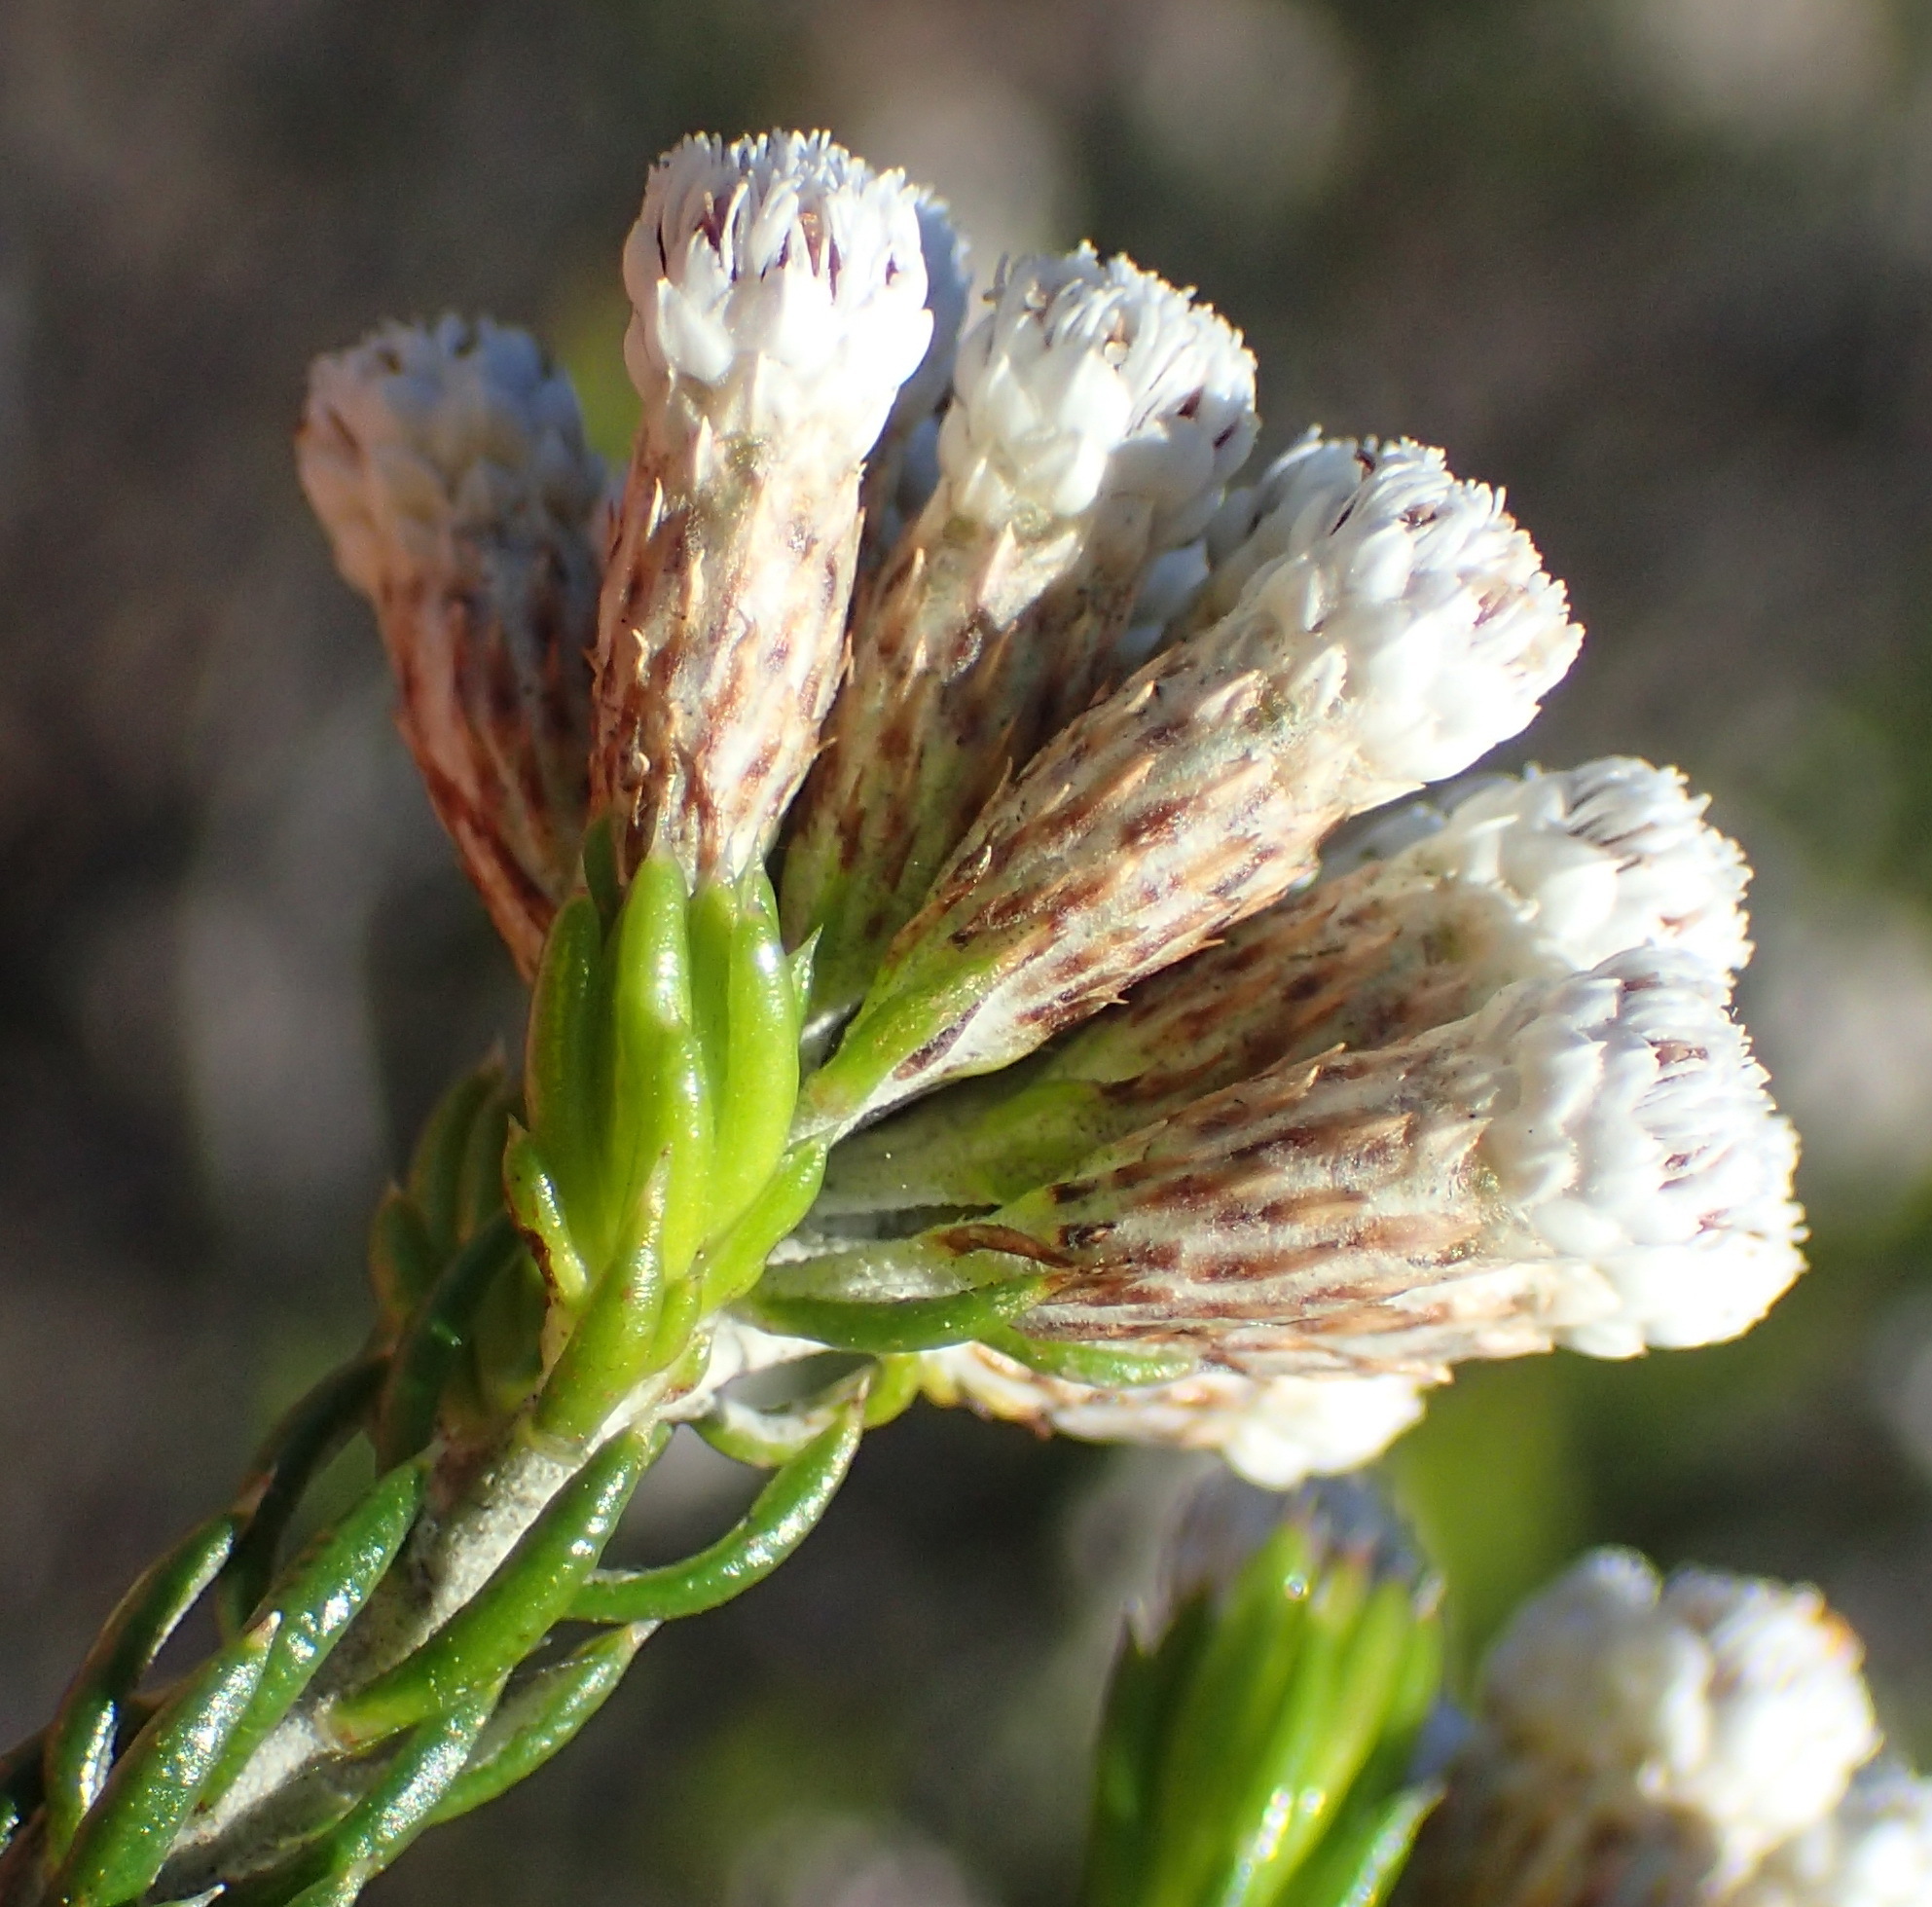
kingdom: Plantae
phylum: Tracheophyta
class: Magnoliopsida
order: Asterales
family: Asteraceae
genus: Metalasia
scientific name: Metalasia pallida
